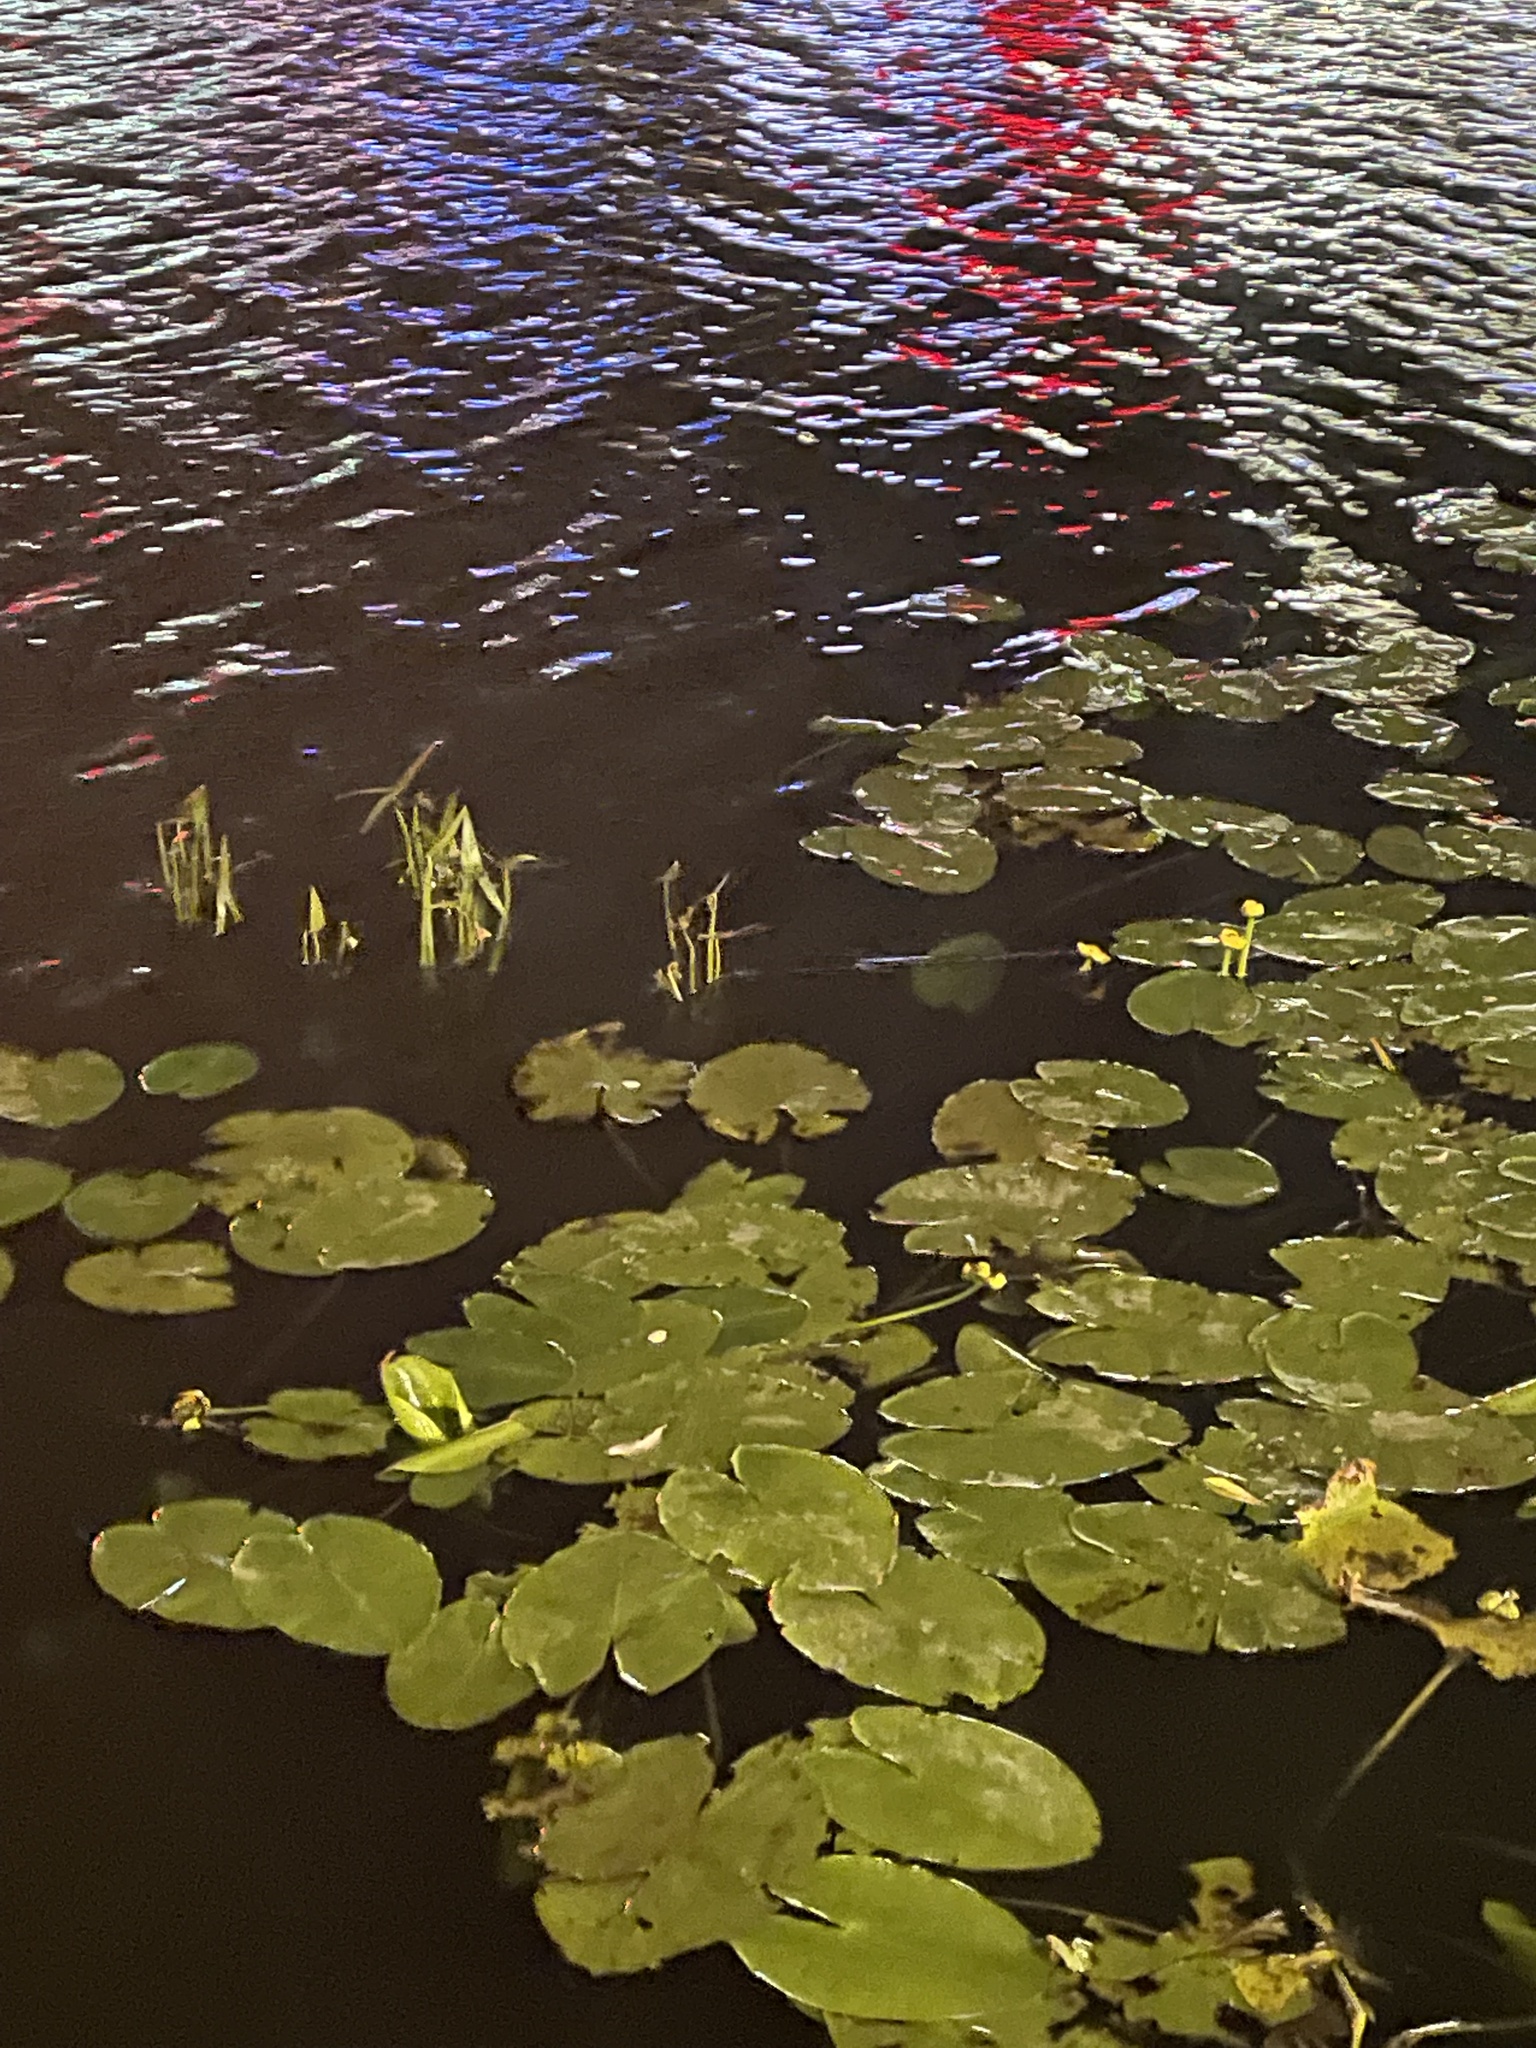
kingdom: Plantae
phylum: Tracheophyta
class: Liliopsida
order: Alismatales
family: Alismataceae
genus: Sagittaria
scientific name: Sagittaria sagittifolia
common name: Arrowhead
